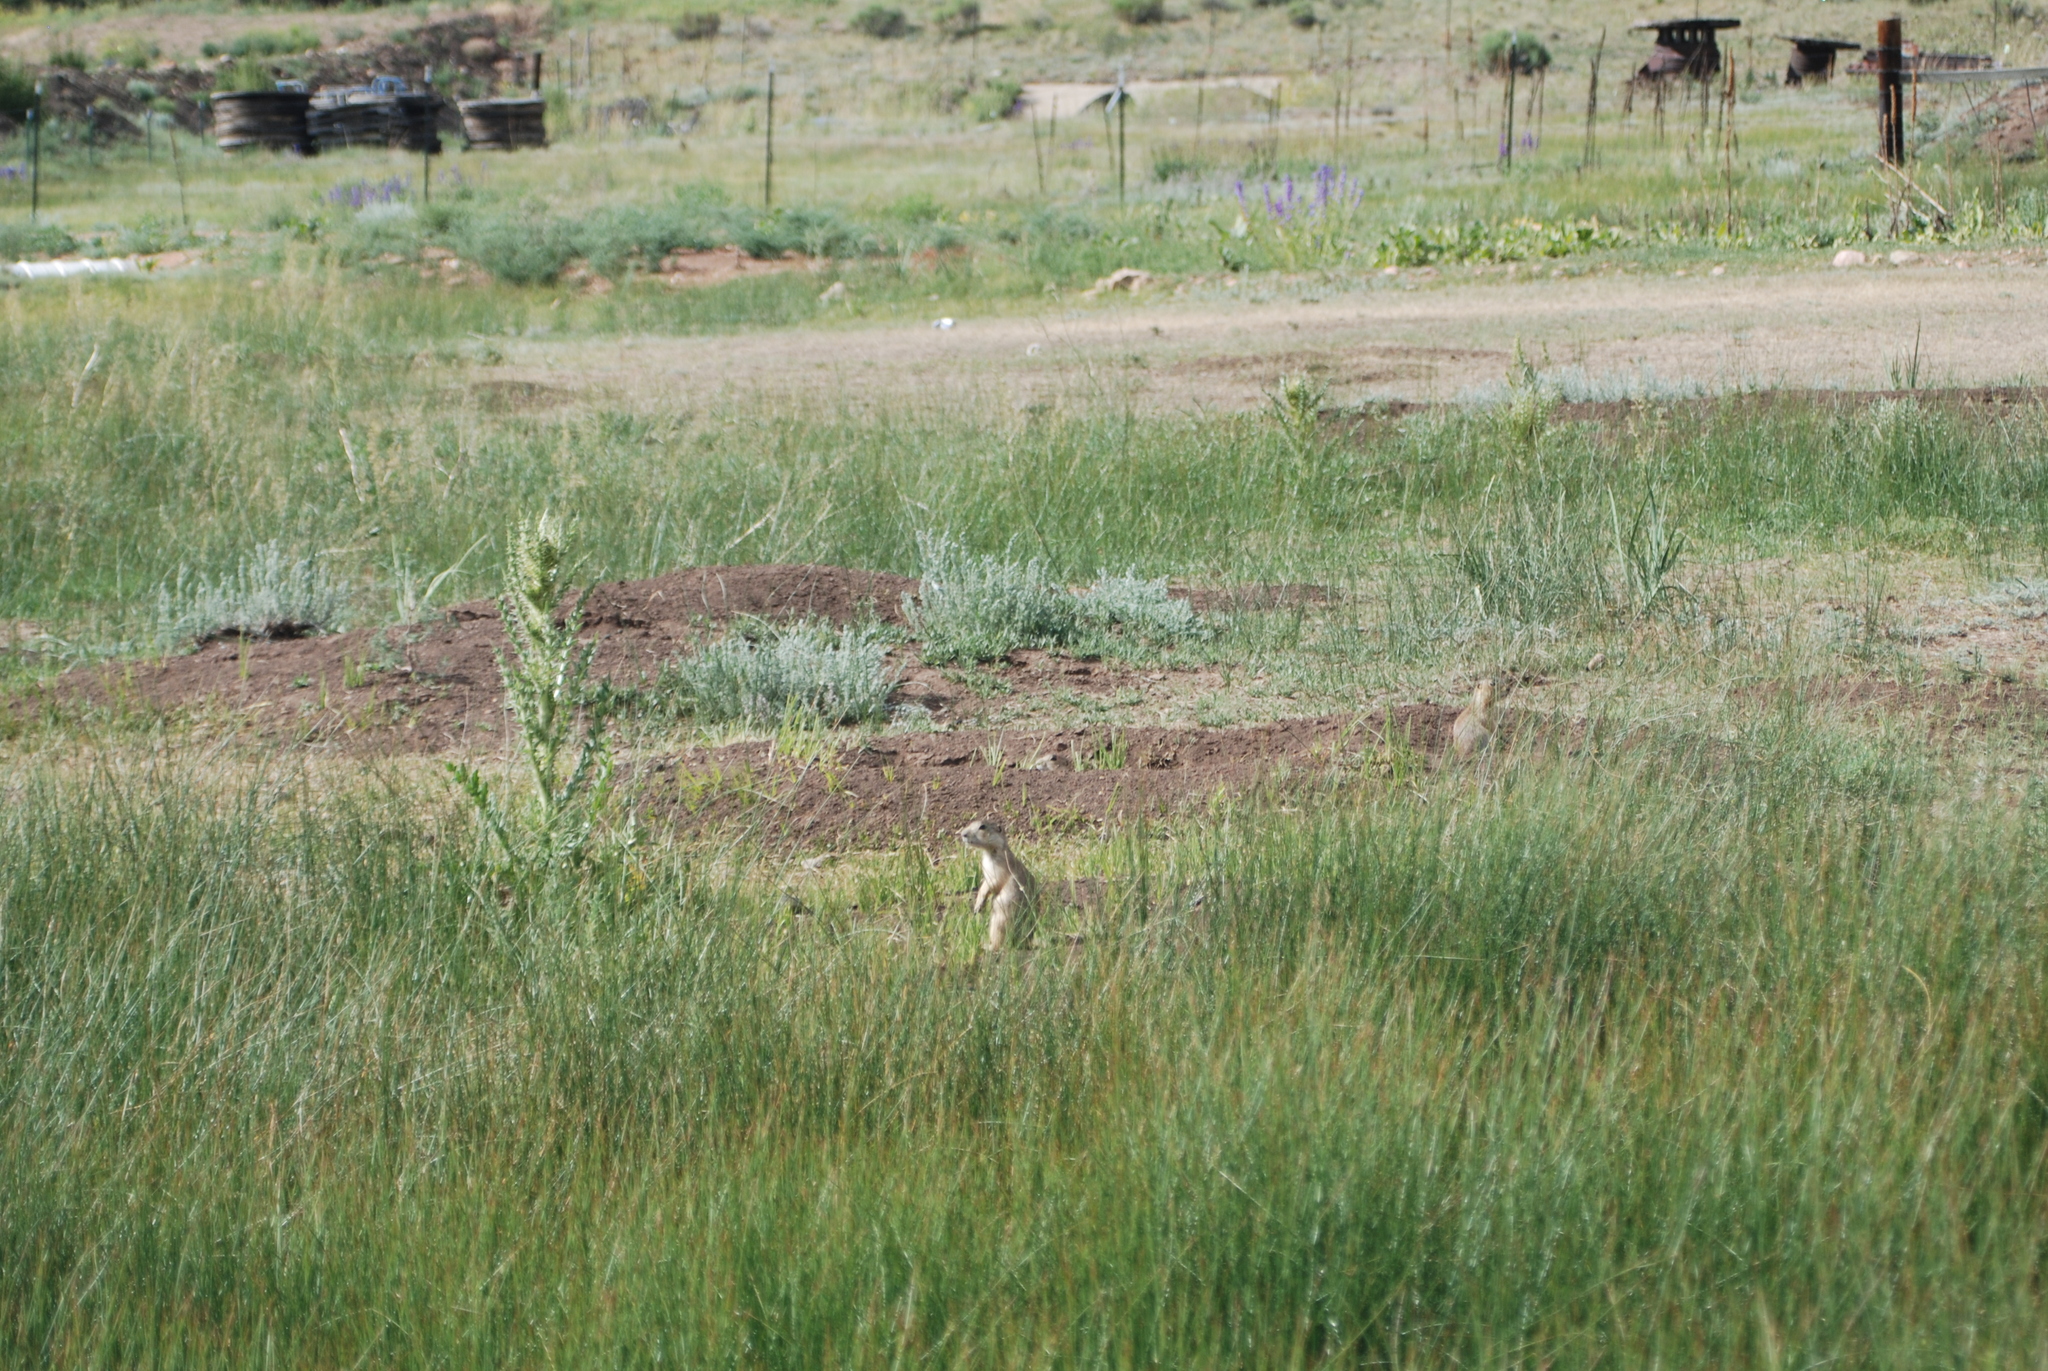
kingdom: Animalia
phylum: Chordata
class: Mammalia
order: Rodentia
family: Sciuridae
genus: Cynomys
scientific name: Cynomys gunnisoni
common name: Gunnison's prairie dog
